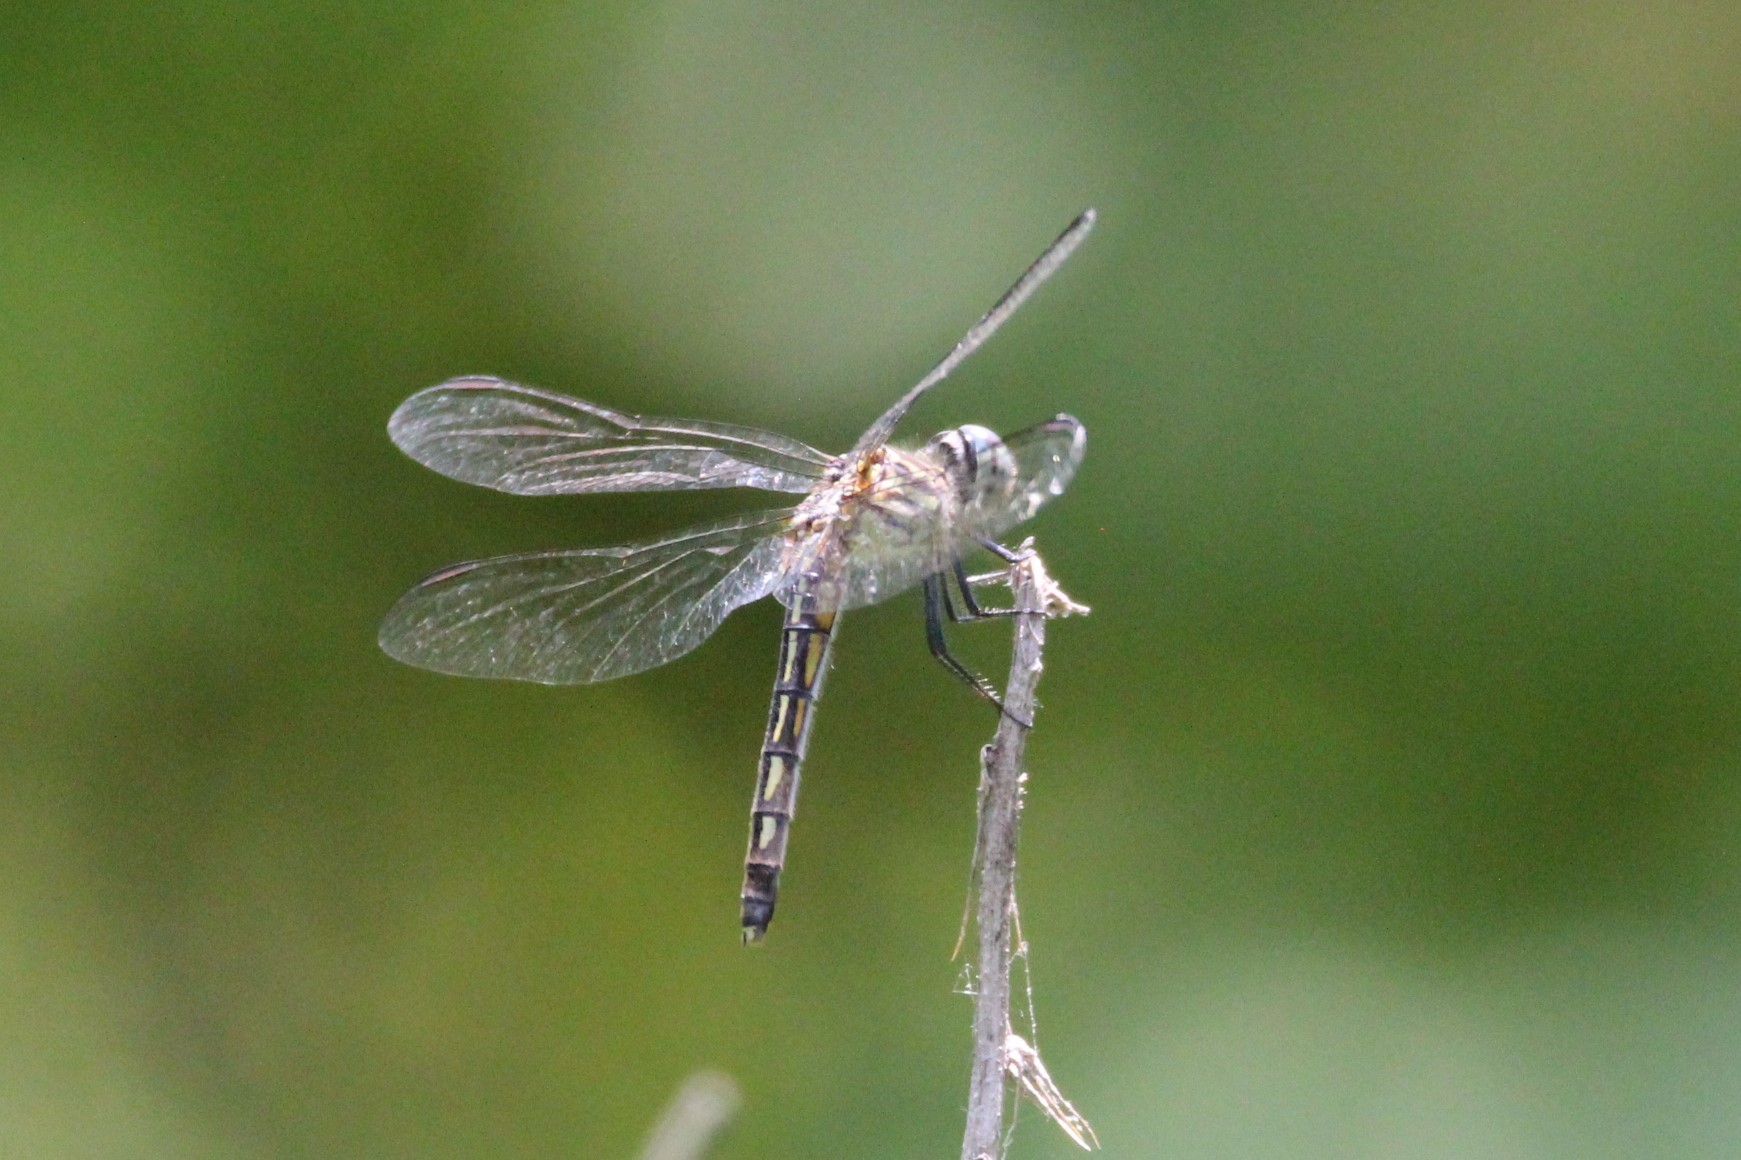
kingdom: Animalia
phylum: Arthropoda
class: Insecta
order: Odonata
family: Libellulidae
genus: Pachydiplax
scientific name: Pachydiplax longipennis
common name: Blue dasher
